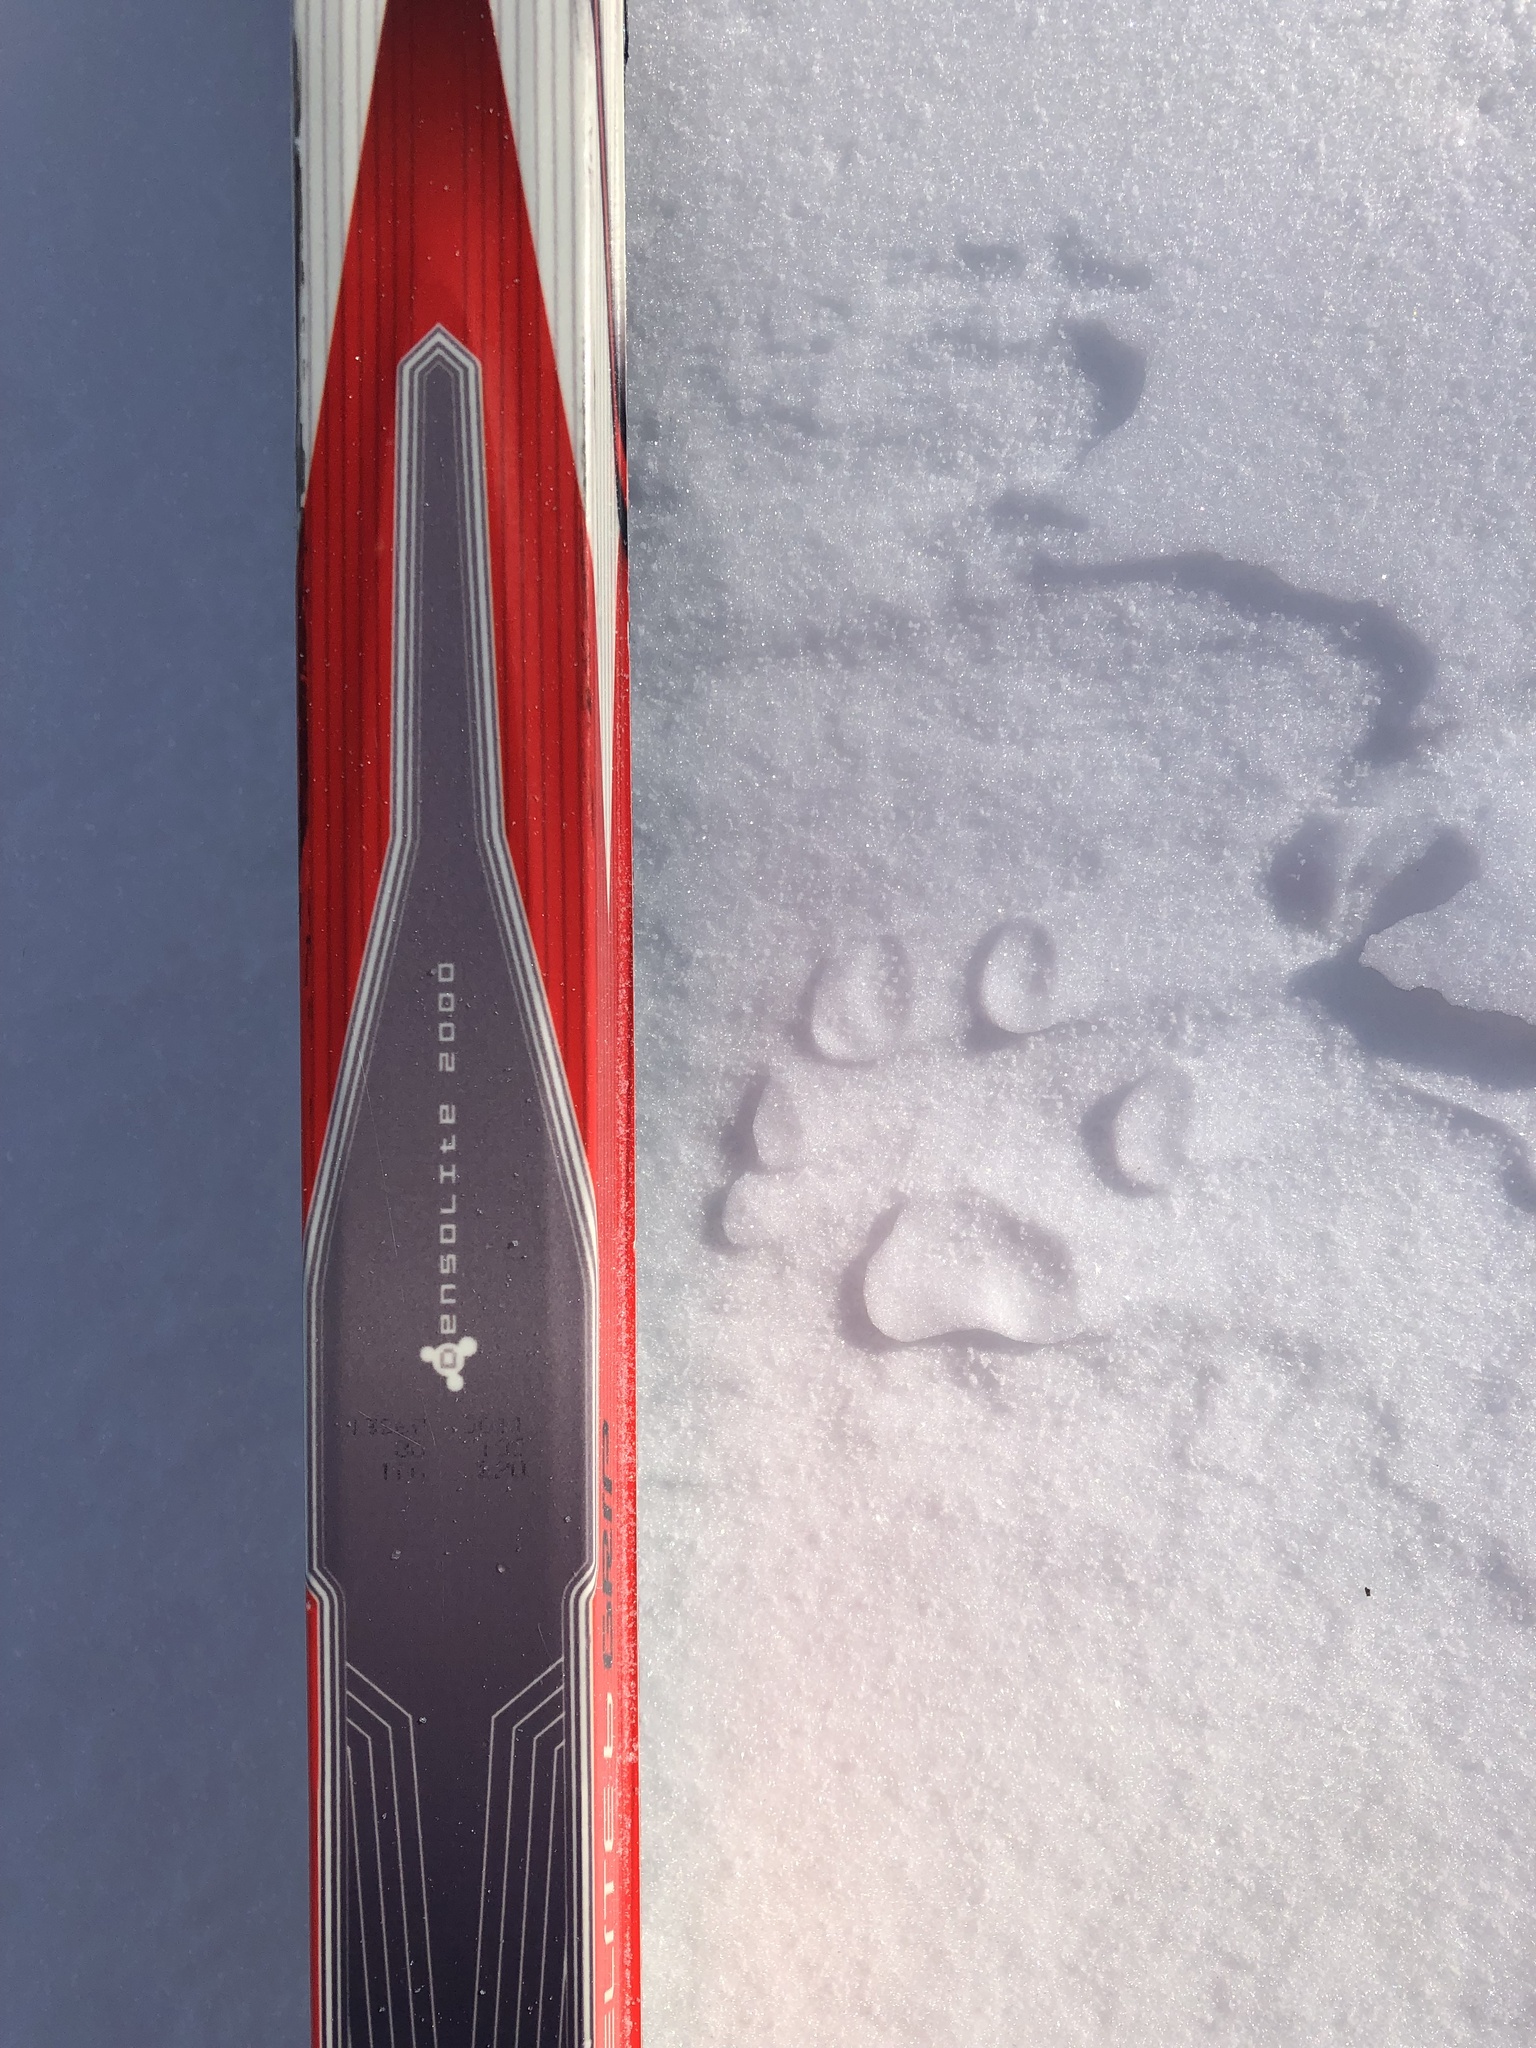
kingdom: Animalia
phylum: Chordata
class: Mammalia
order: Carnivora
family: Felidae
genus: Lynx
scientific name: Lynx canadensis
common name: Canadian lynx
